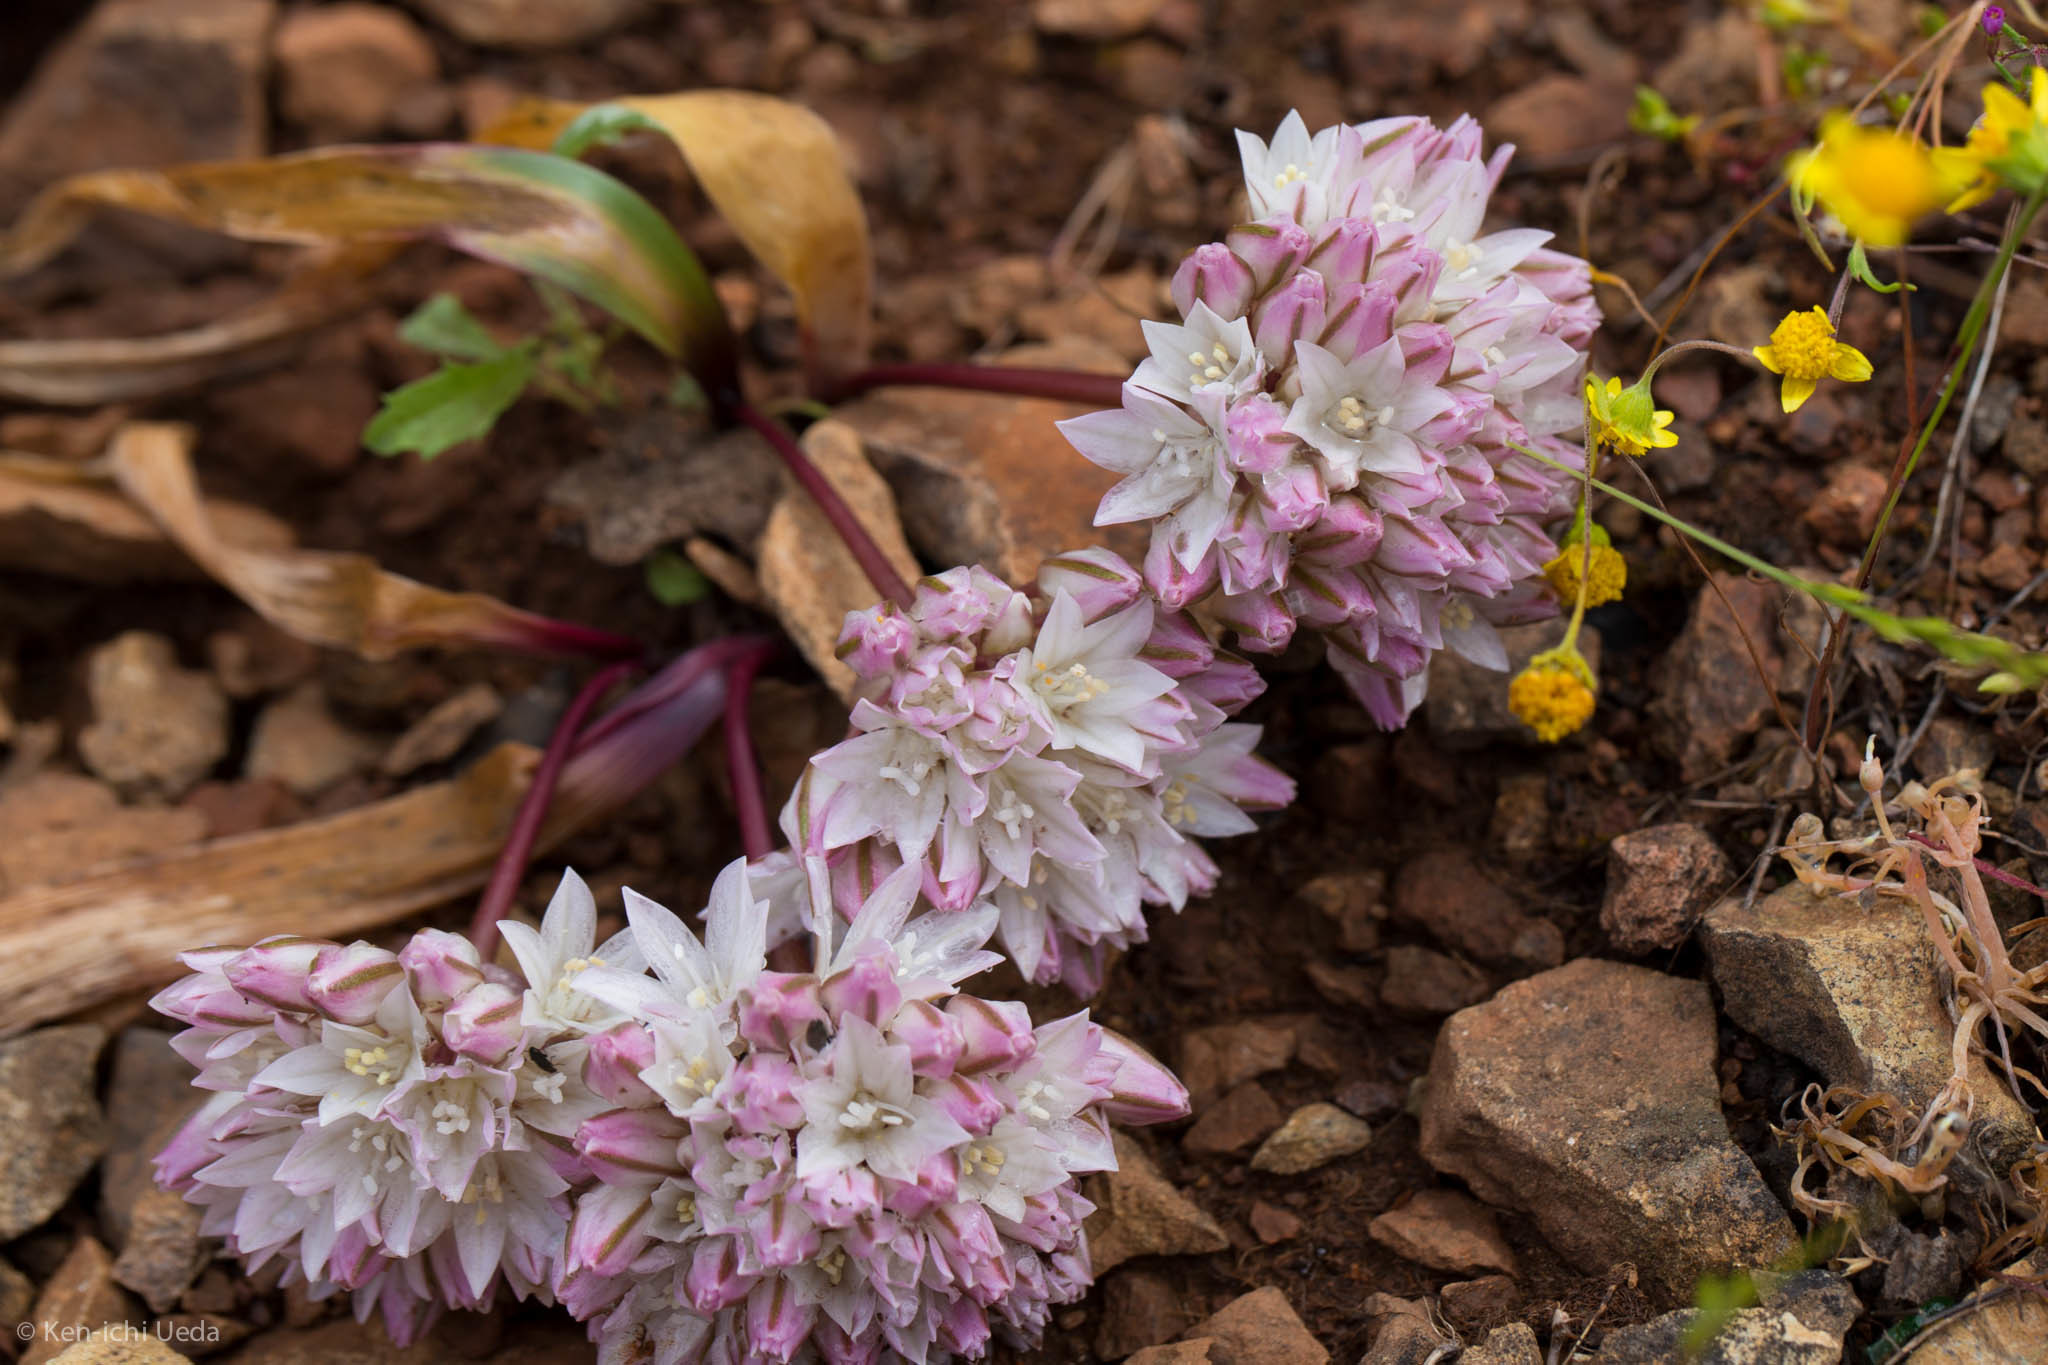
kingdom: Plantae
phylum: Tracheophyta
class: Liliopsida
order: Asparagales
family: Amaryllidaceae
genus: Allium
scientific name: Allium cratericola
